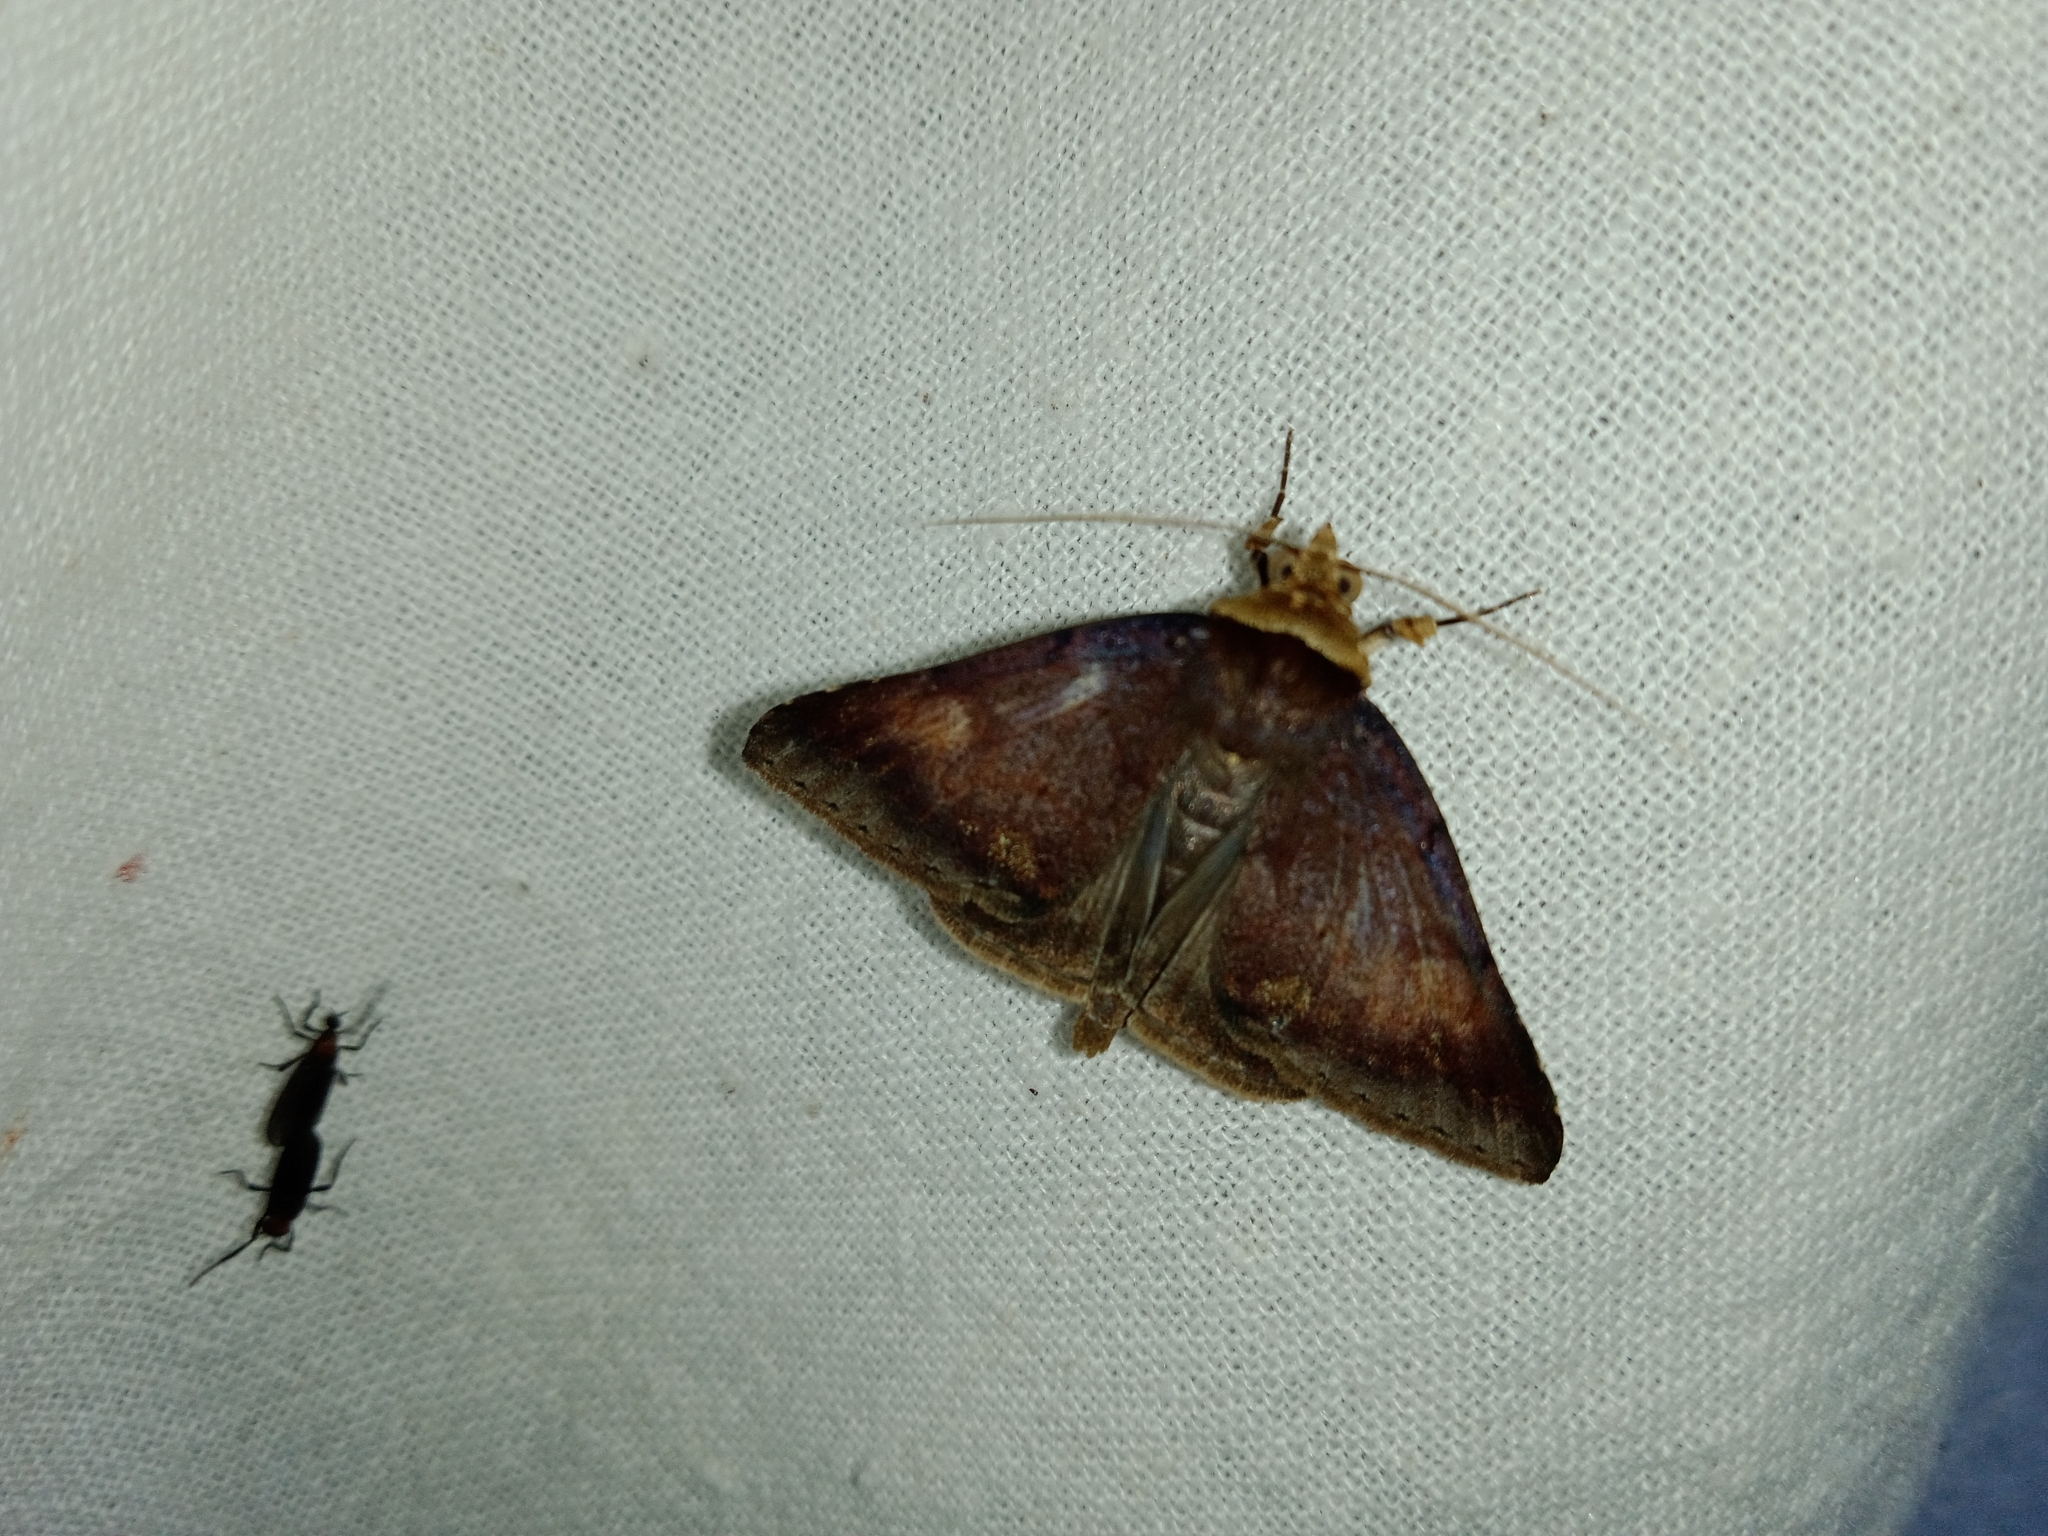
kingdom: Animalia
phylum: Arthropoda
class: Insecta
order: Lepidoptera
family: Erebidae
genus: Plecoptera
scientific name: Plecoptera quaesita
